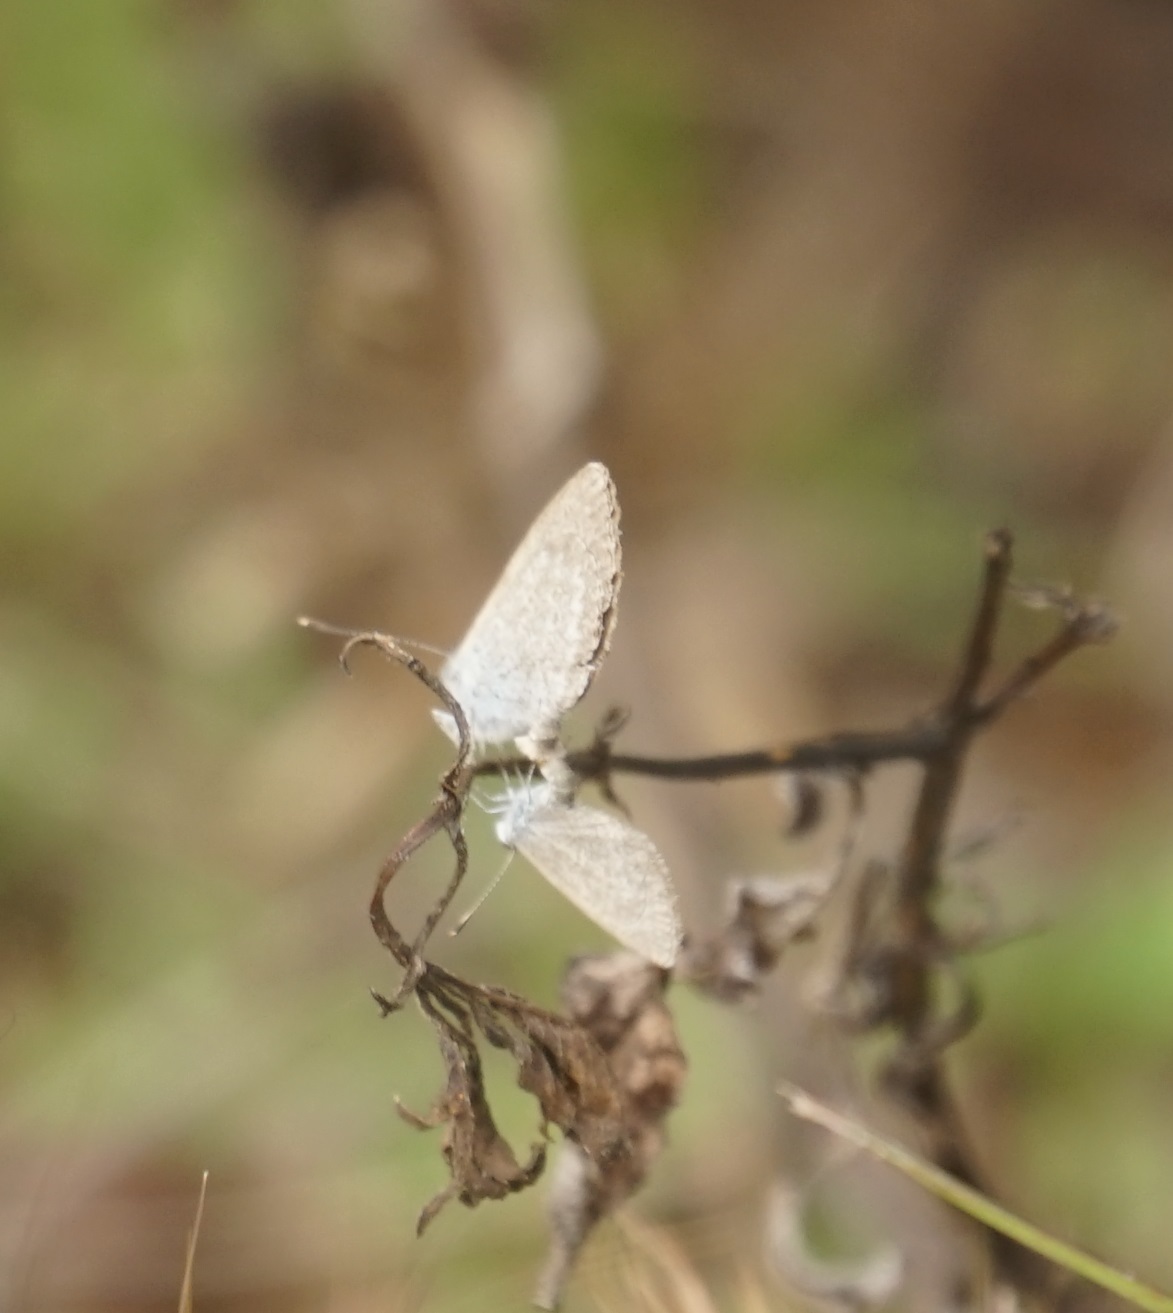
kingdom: Animalia
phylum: Arthropoda
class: Insecta
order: Lepidoptera
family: Lycaenidae
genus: Zizina
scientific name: Zizina labradus
